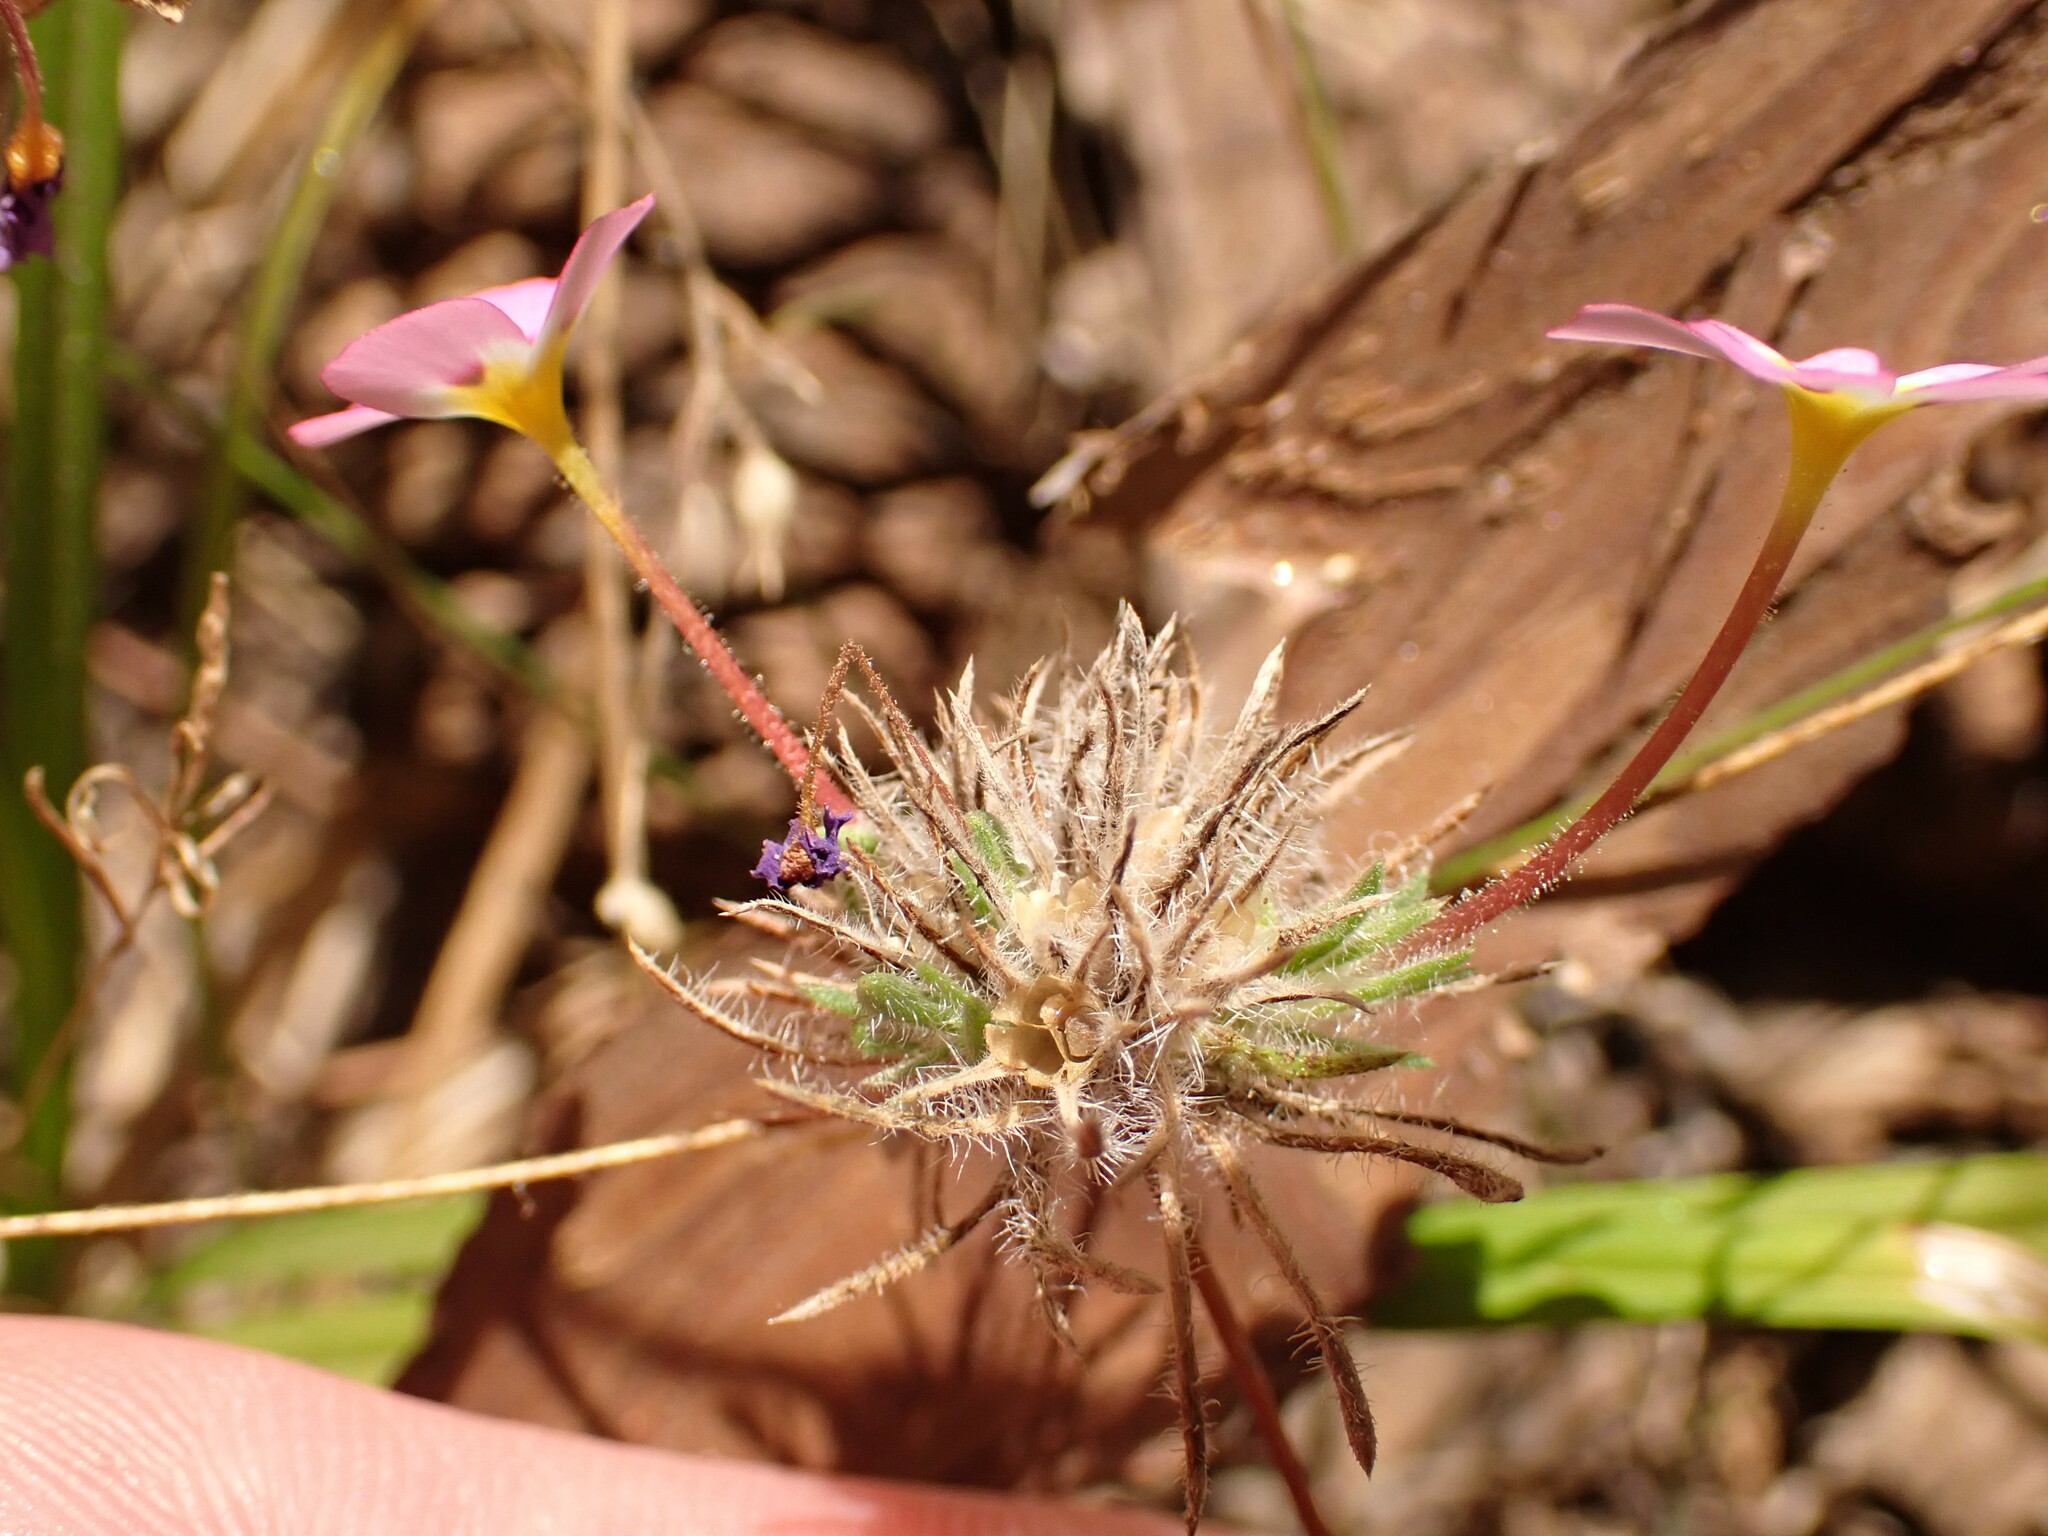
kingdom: Plantae
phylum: Tracheophyta
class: Magnoliopsida
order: Ericales
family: Polemoniaceae
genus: Leptosiphon
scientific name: Leptosiphon ciliatus
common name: Whiskerbrush
